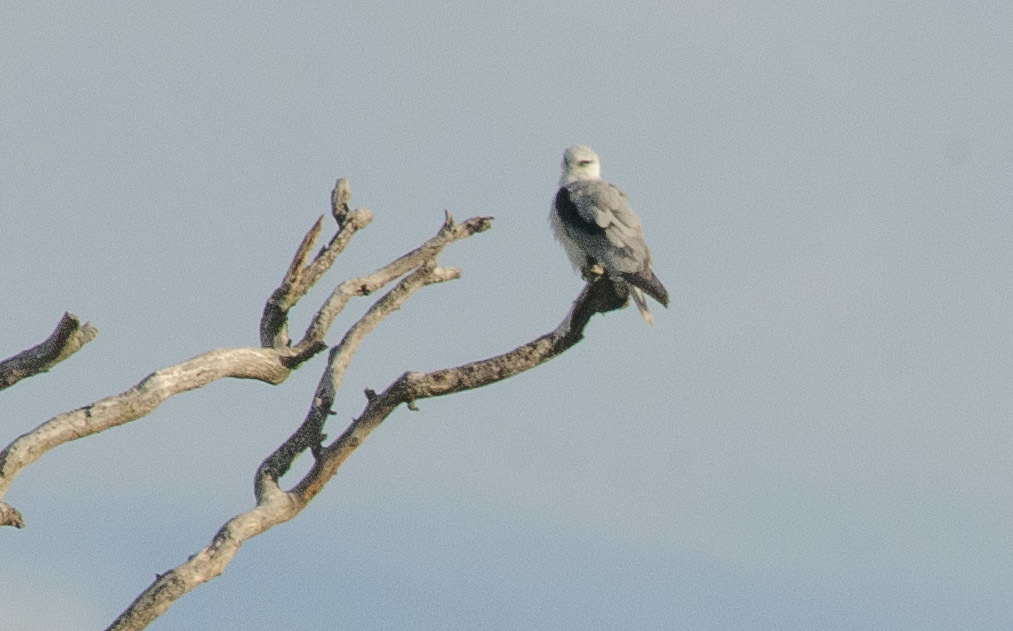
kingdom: Animalia
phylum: Chordata
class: Aves
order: Accipitriformes
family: Accipitridae
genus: Elanus
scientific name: Elanus axillaris
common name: Black-shouldered kite
